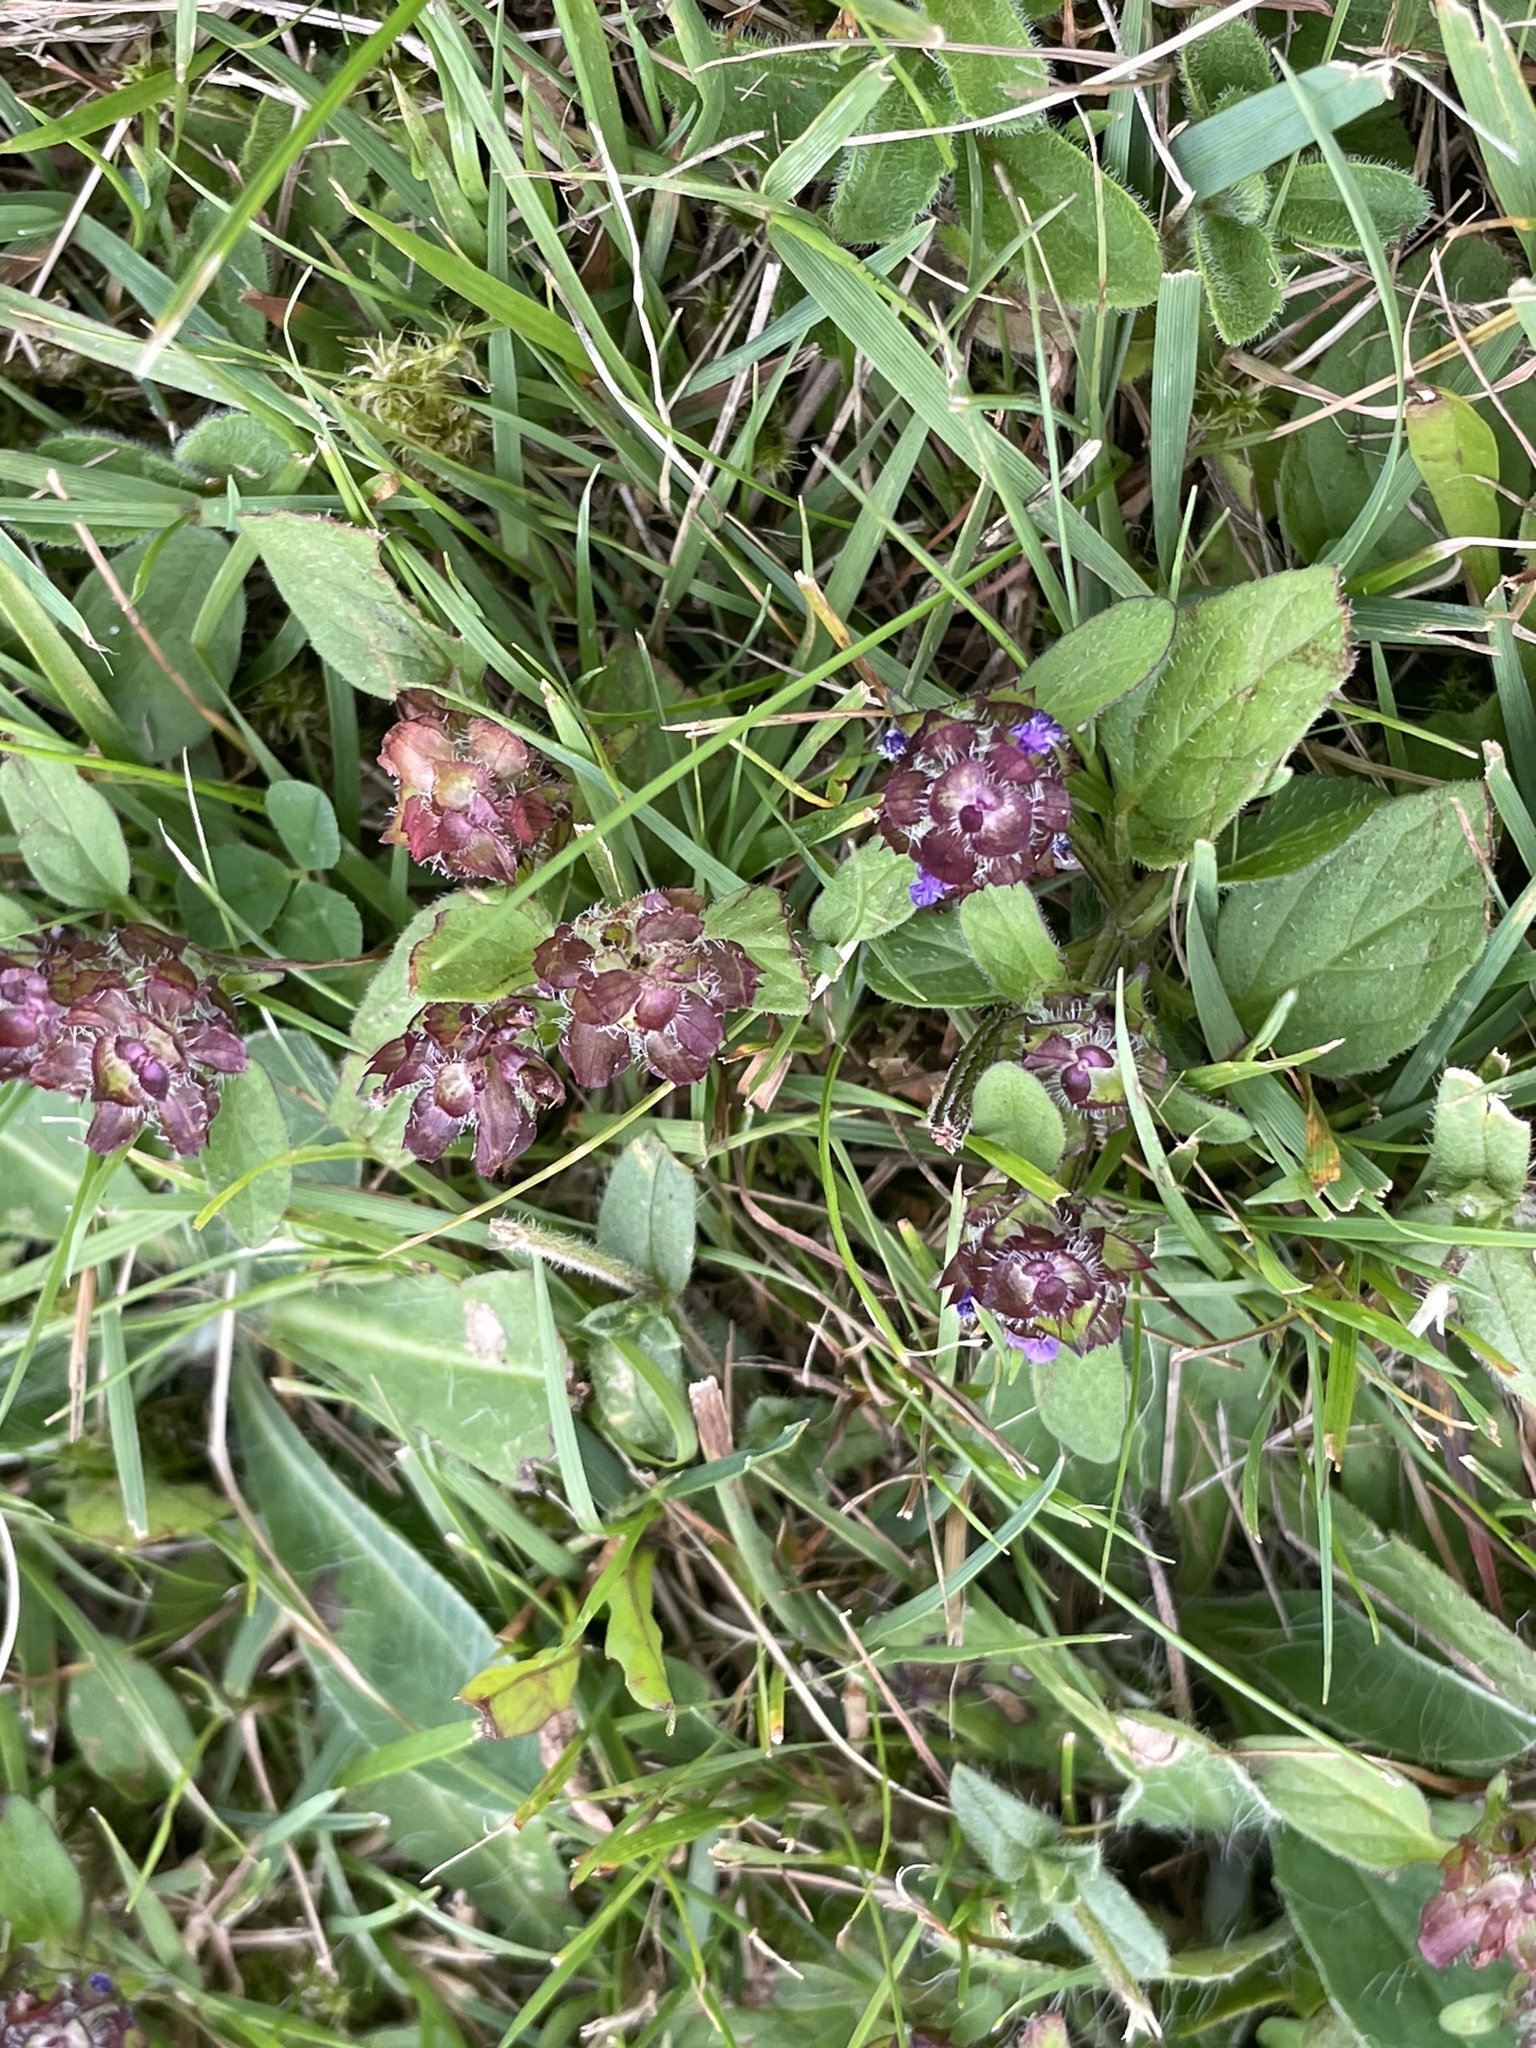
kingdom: Plantae
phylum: Tracheophyta
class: Magnoliopsida
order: Lamiales
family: Lamiaceae
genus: Prunella
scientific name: Prunella vulgaris
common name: Heal-all
